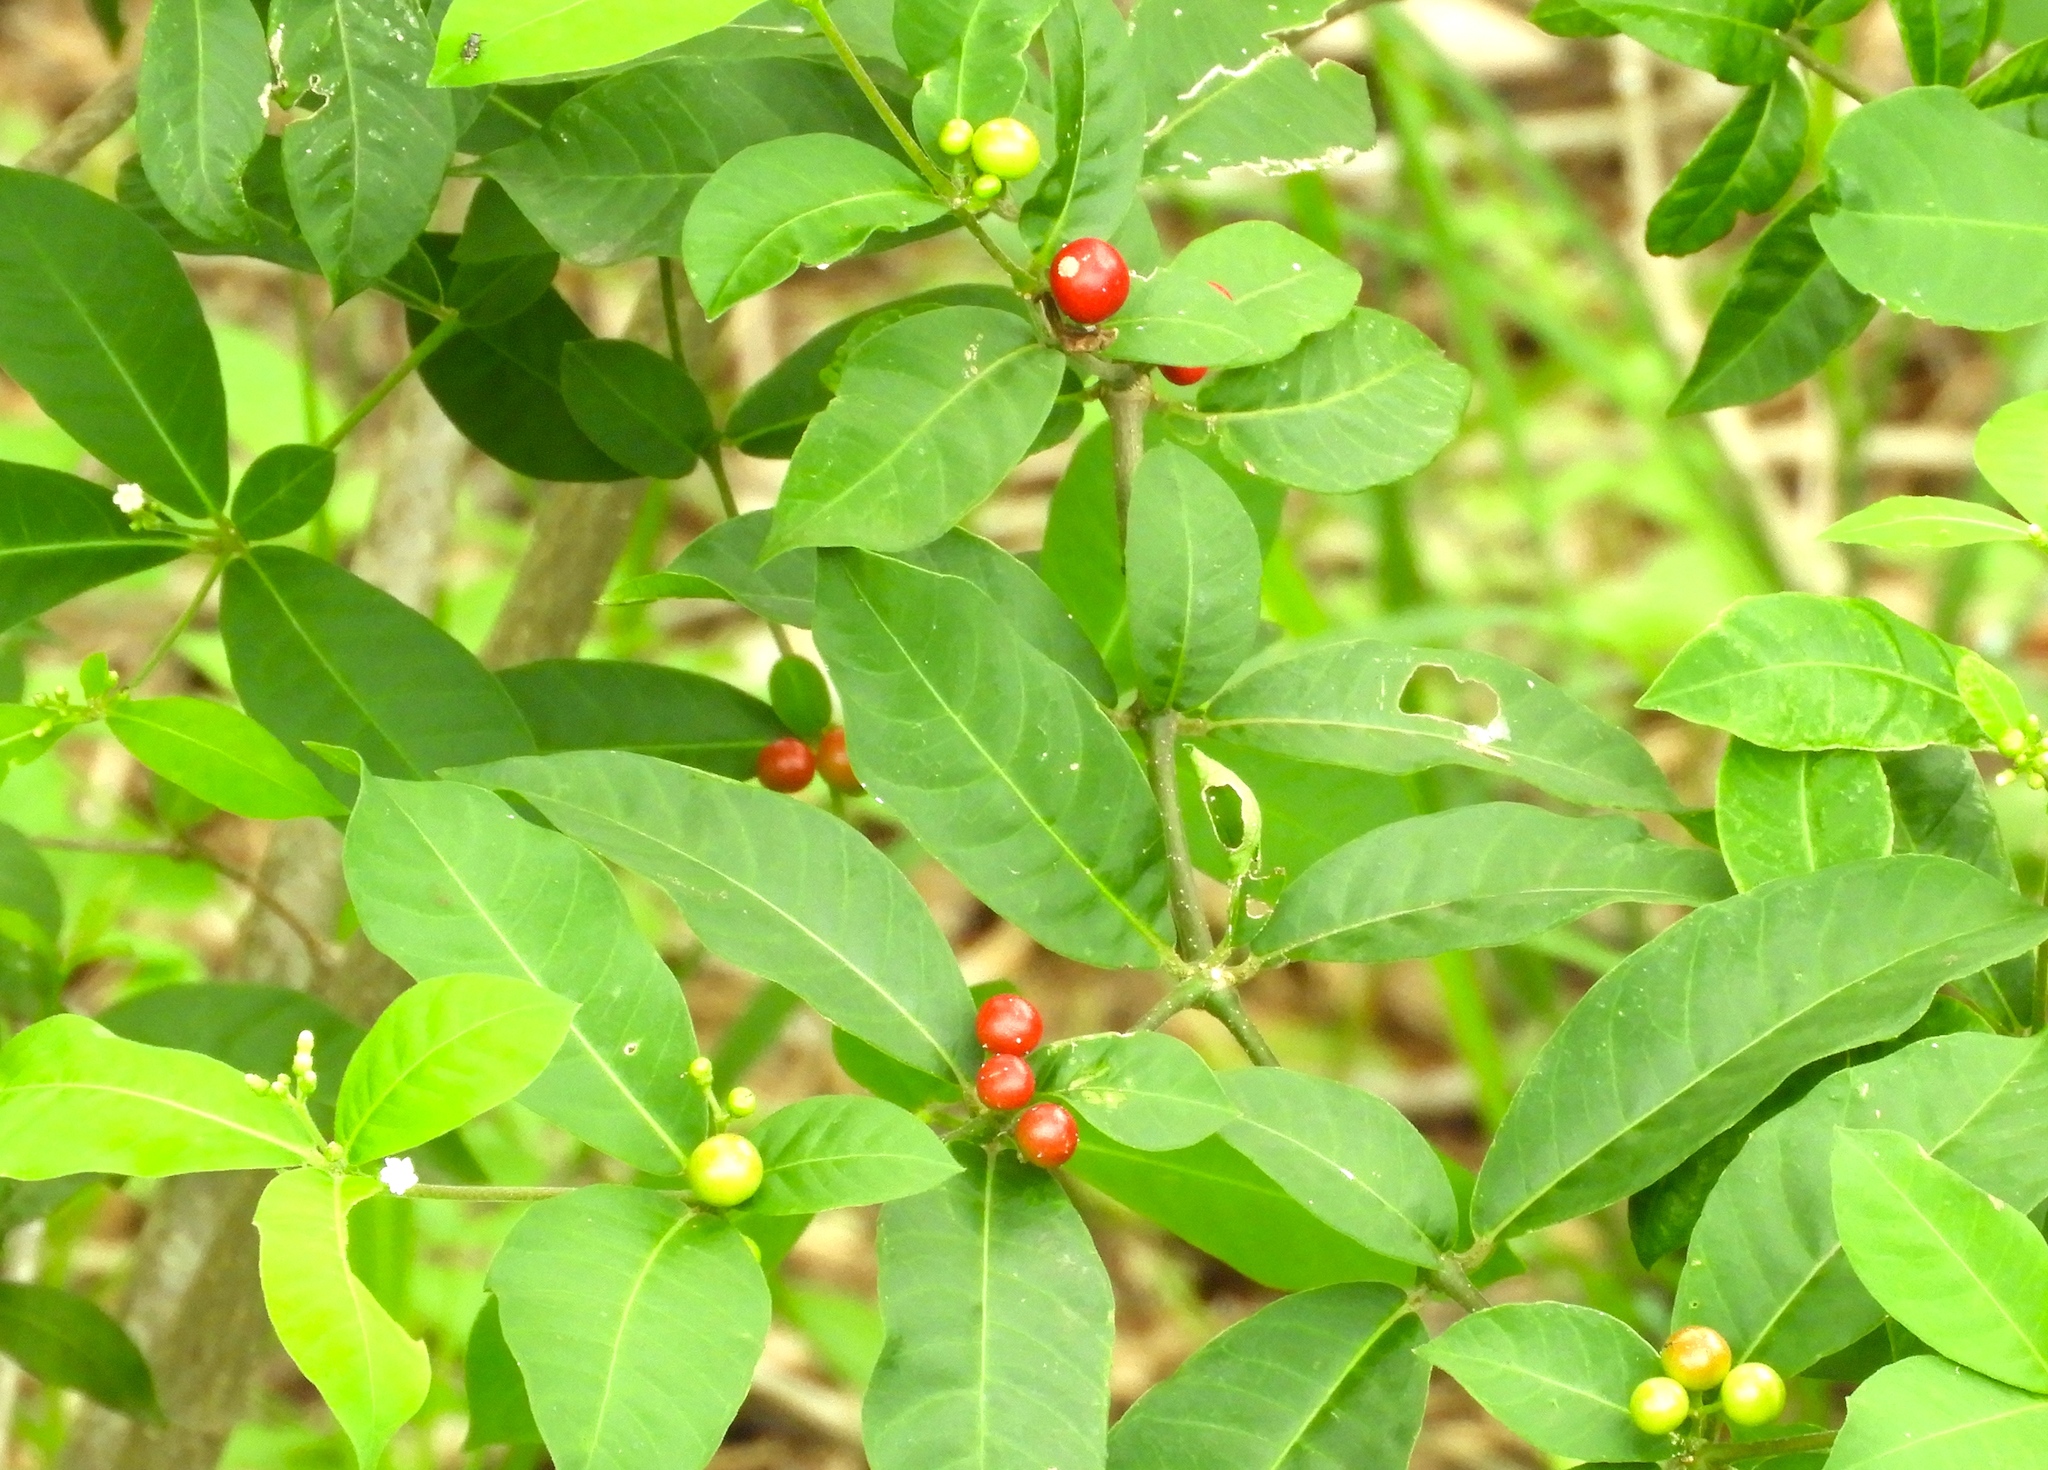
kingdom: Plantae
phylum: Tracheophyta
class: Magnoliopsida
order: Gentianales
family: Apocynaceae
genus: Rauvolfia
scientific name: Rauvolfia tetraphylla
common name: Four-leaf devil-pepper
